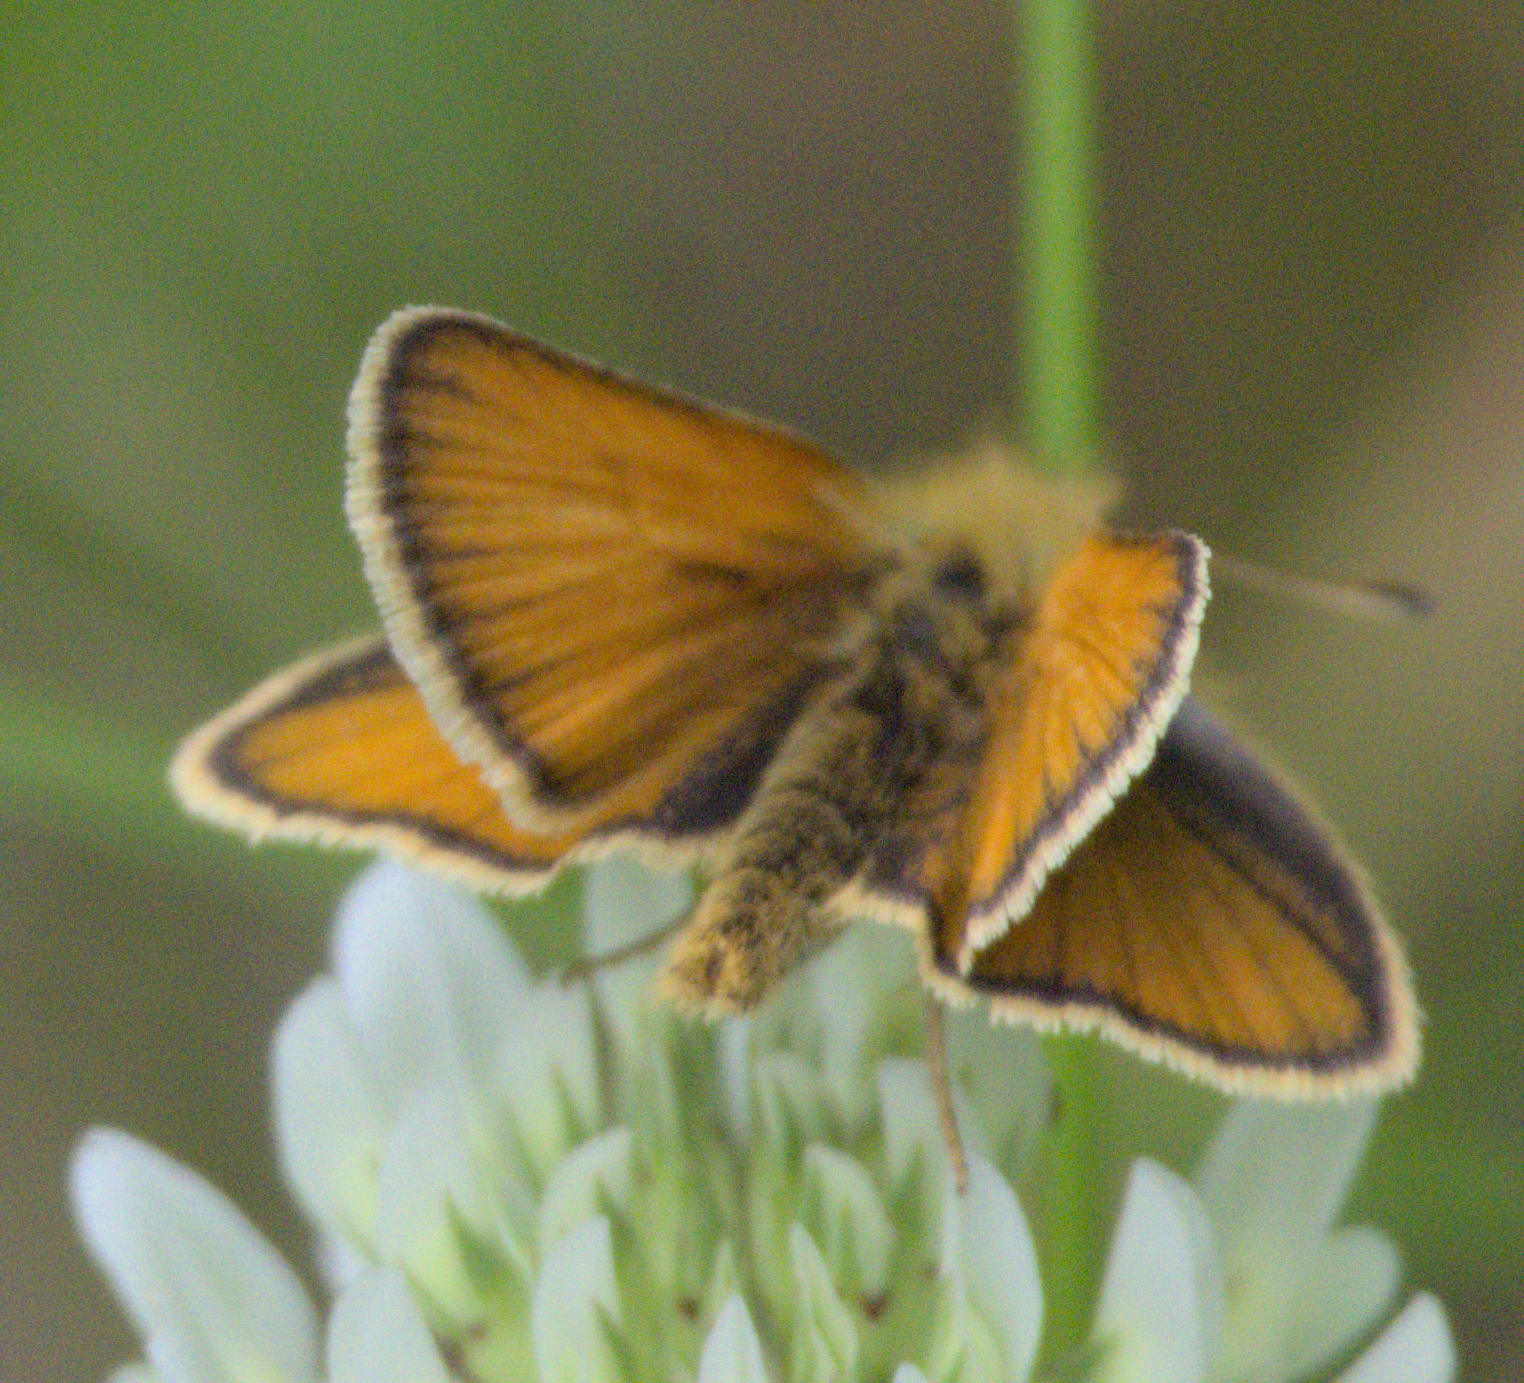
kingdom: Animalia
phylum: Arthropoda
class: Insecta
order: Lepidoptera
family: Hesperiidae
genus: Thymelicus
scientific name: Thymelicus lineola
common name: Essex skipper
